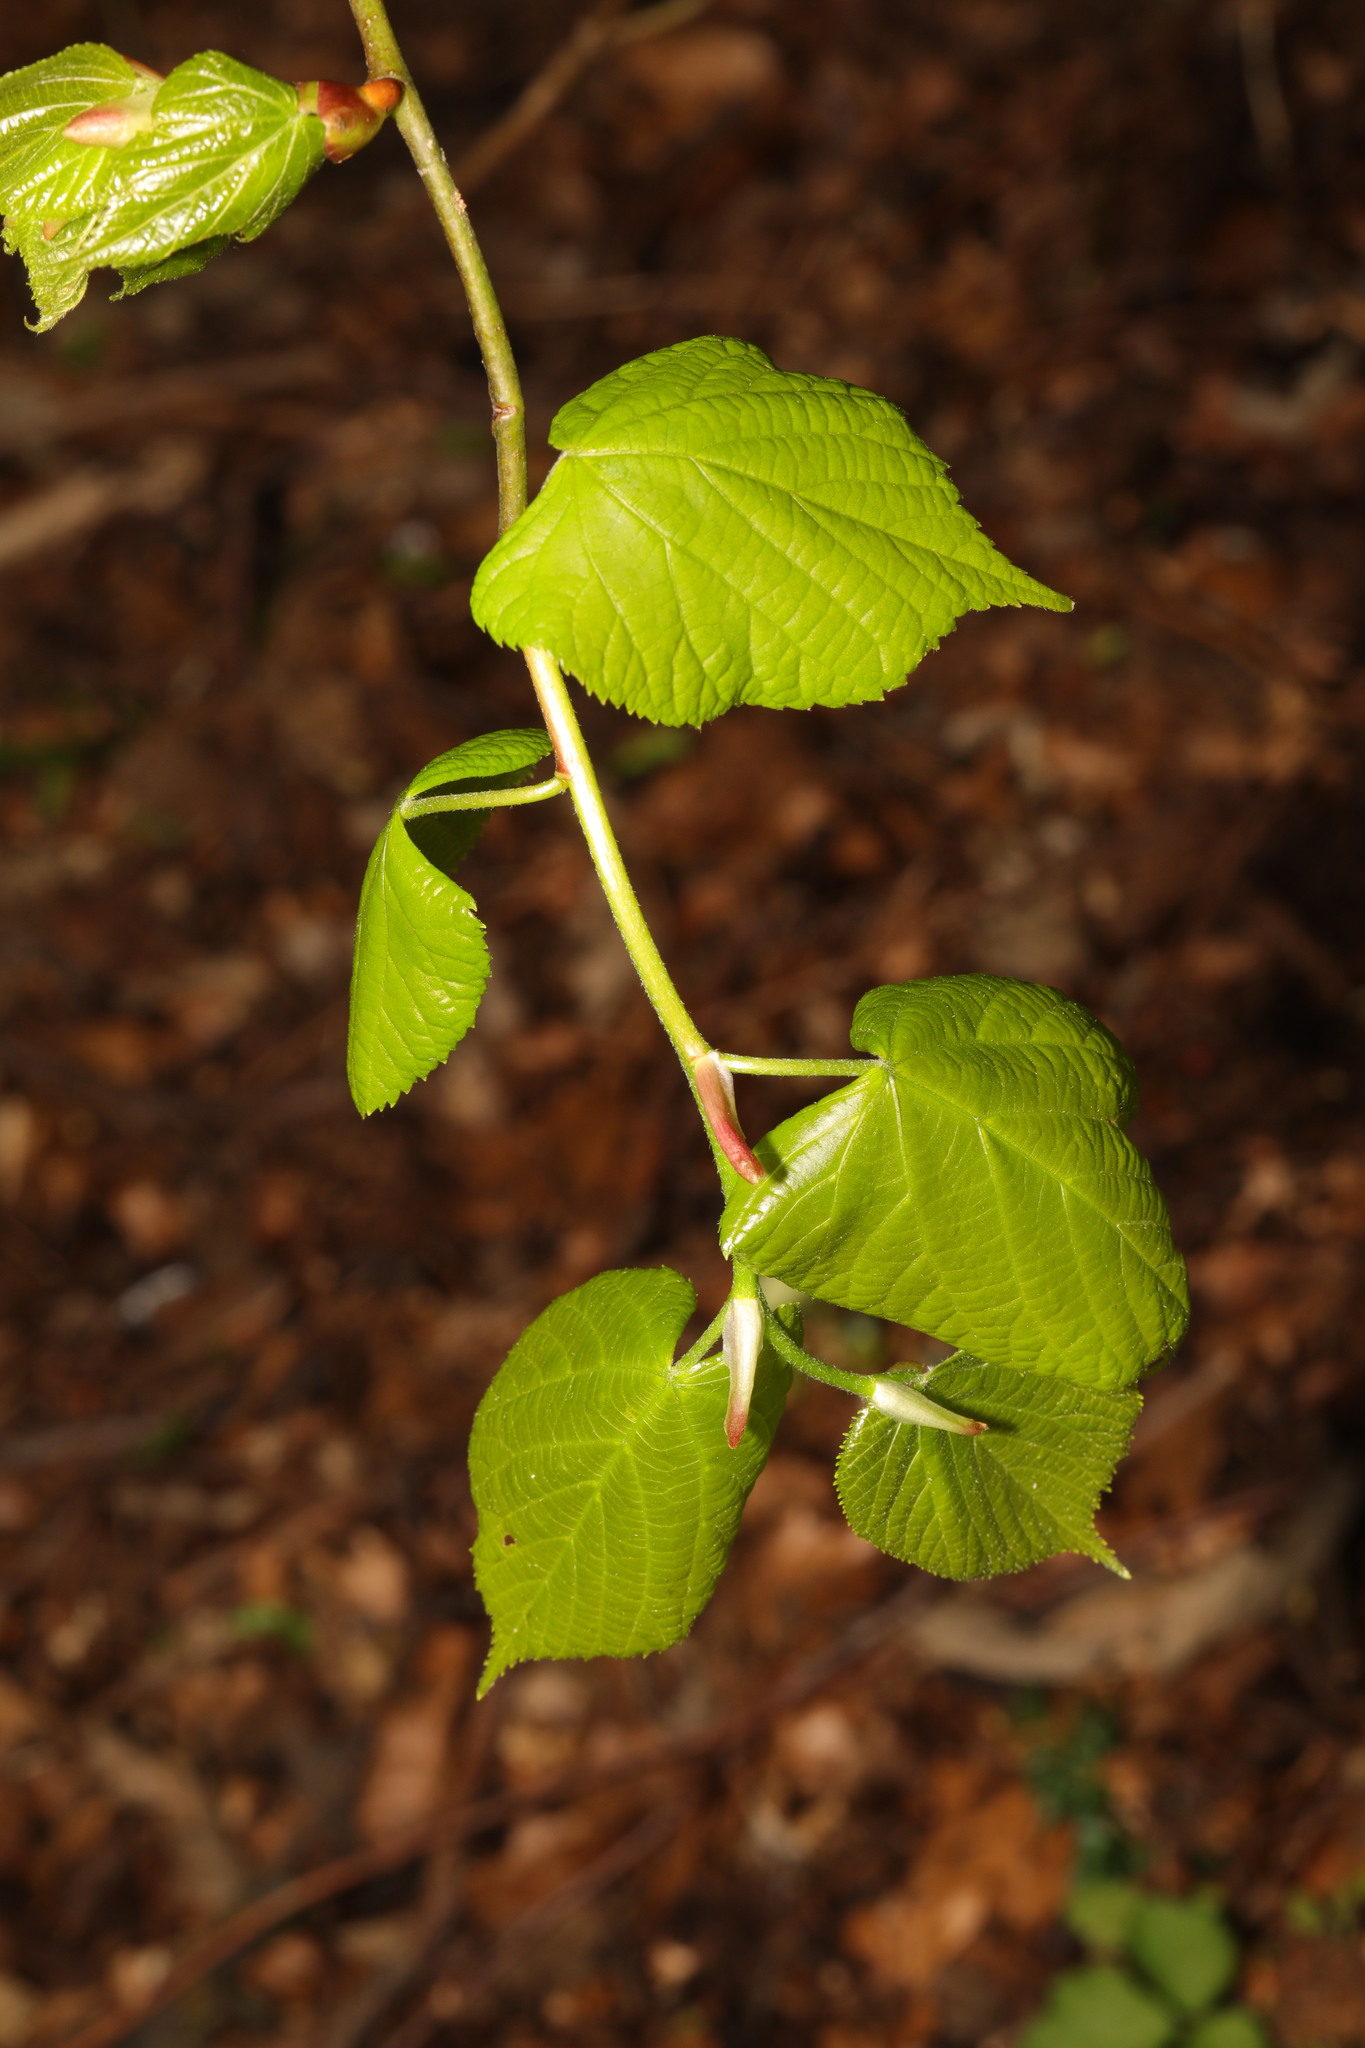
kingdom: Plantae
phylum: Tracheophyta
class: Magnoliopsida
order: Malvales
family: Malvaceae
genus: Tilia
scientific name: Tilia europaea
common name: European linden
